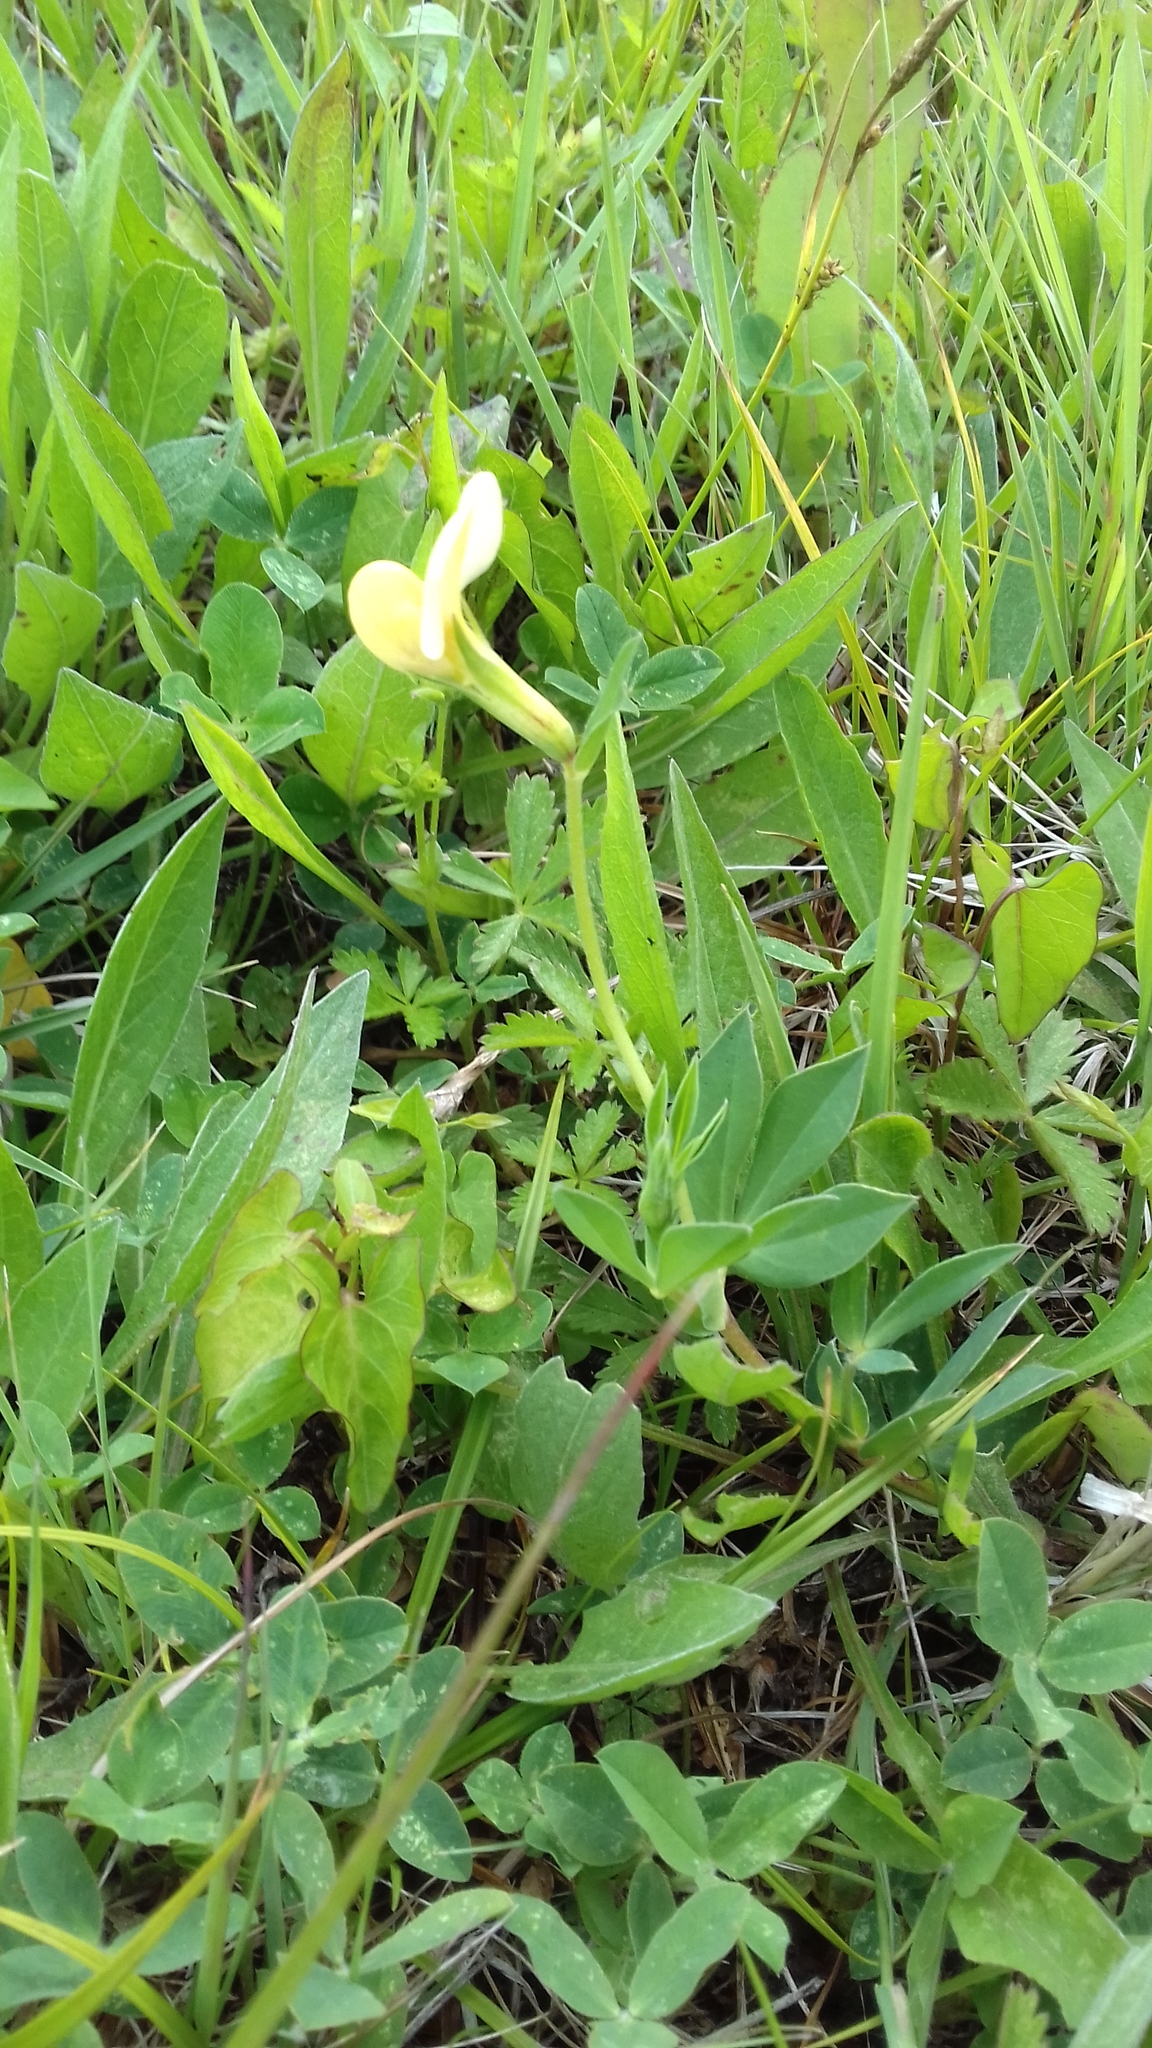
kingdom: Plantae
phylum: Tracheophyta
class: Magnoliopsida
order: Fabales
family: Fabaceae
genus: Lotus
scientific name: Lotus maritimus
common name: Dragon's-teeth
